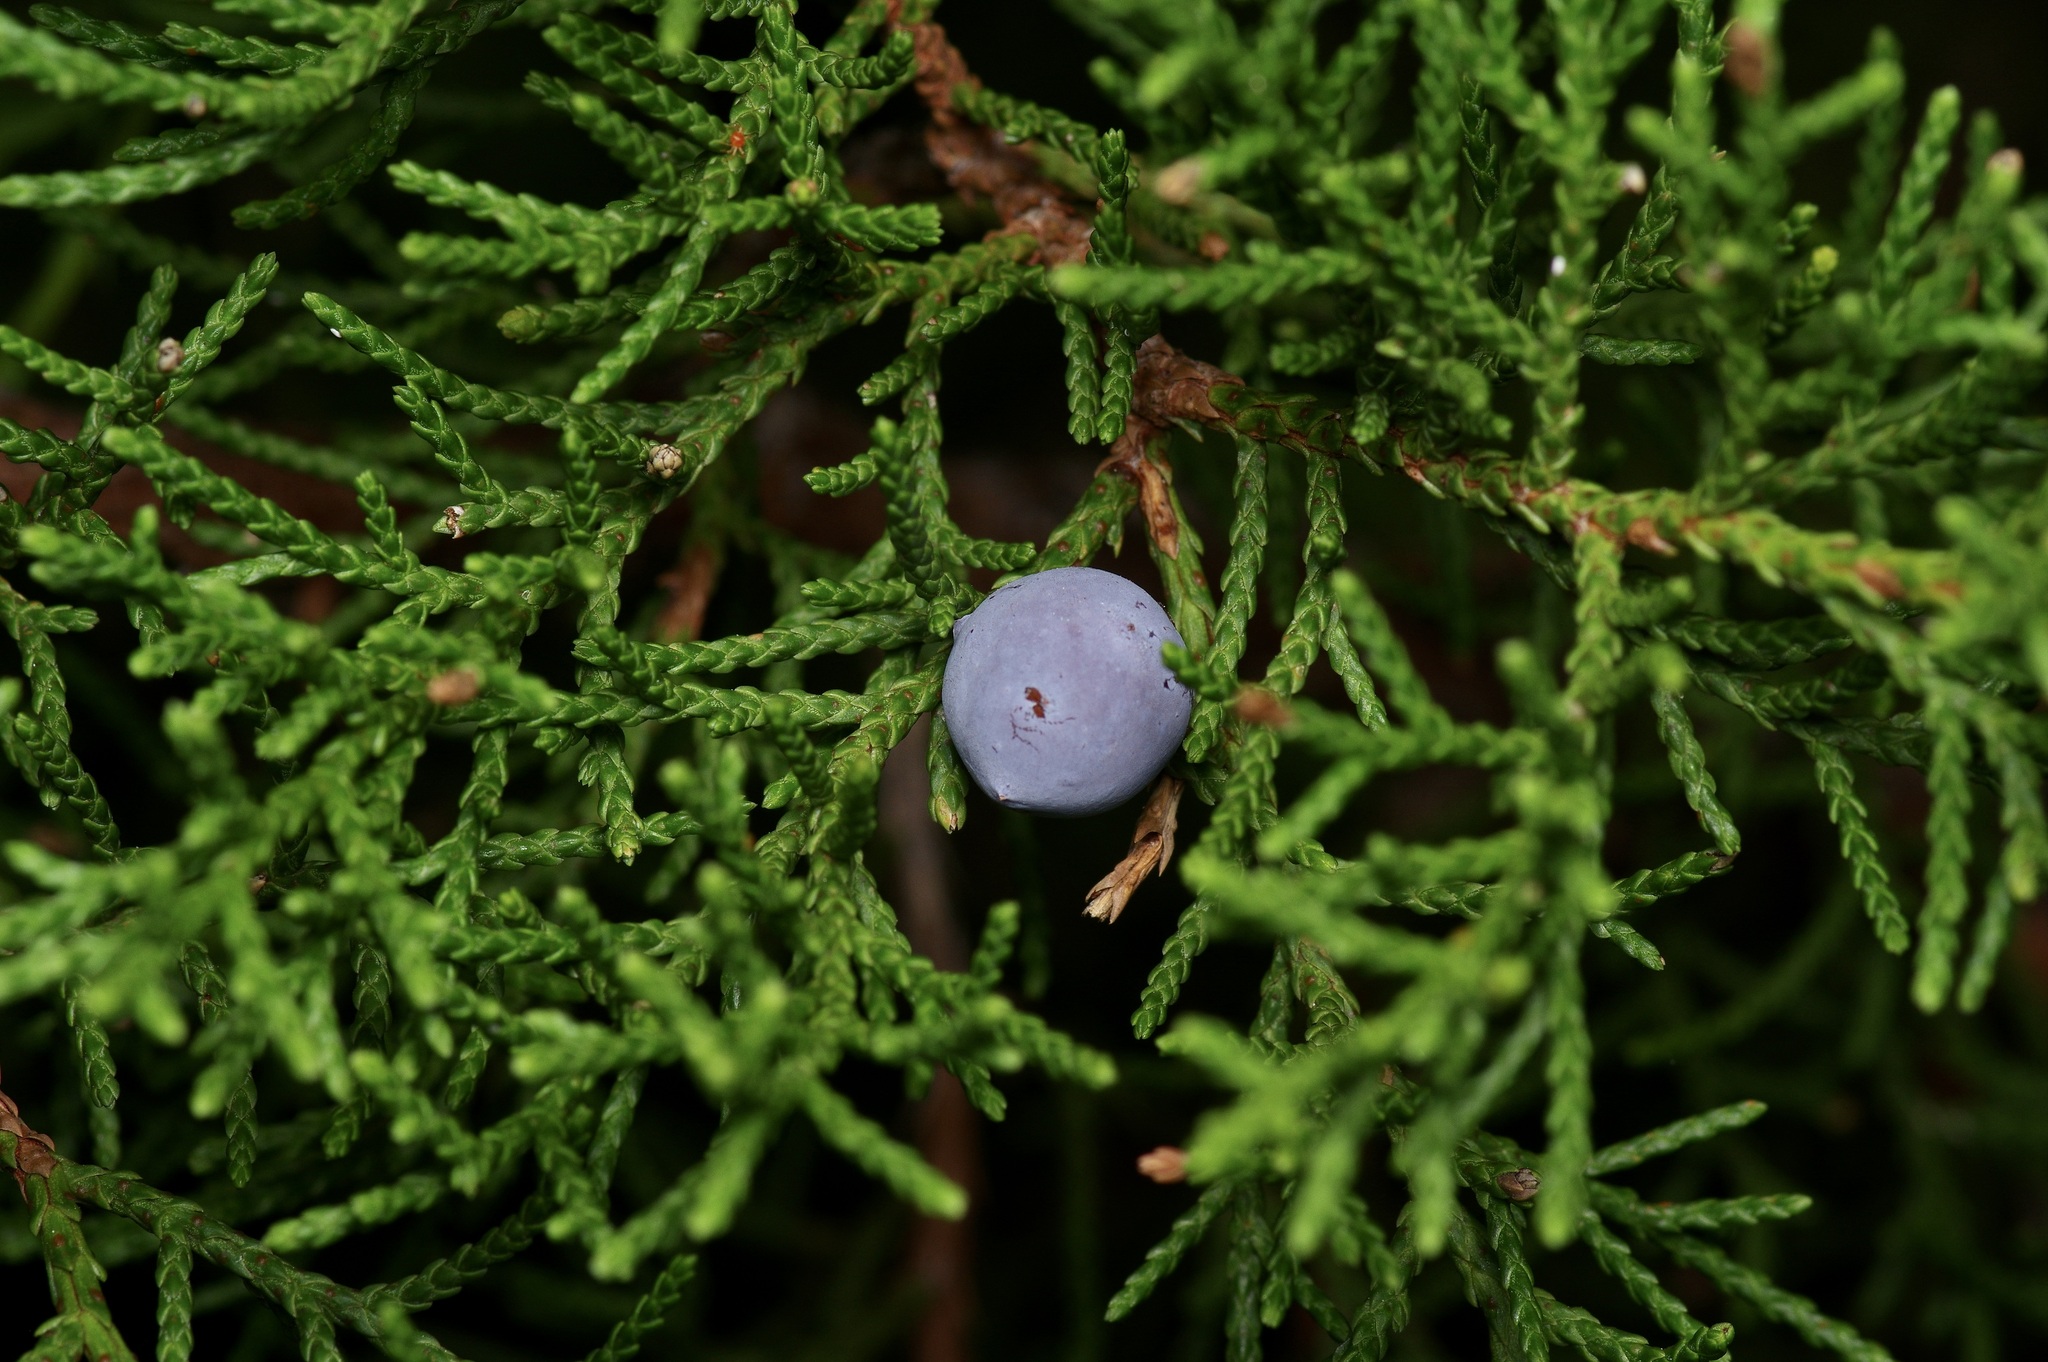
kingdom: Plantae
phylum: Tracheophyta
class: Pinopsida
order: Pinales
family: Cupressaceae
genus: Juniperus
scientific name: Juniperus ashei
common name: Mexican juniper
